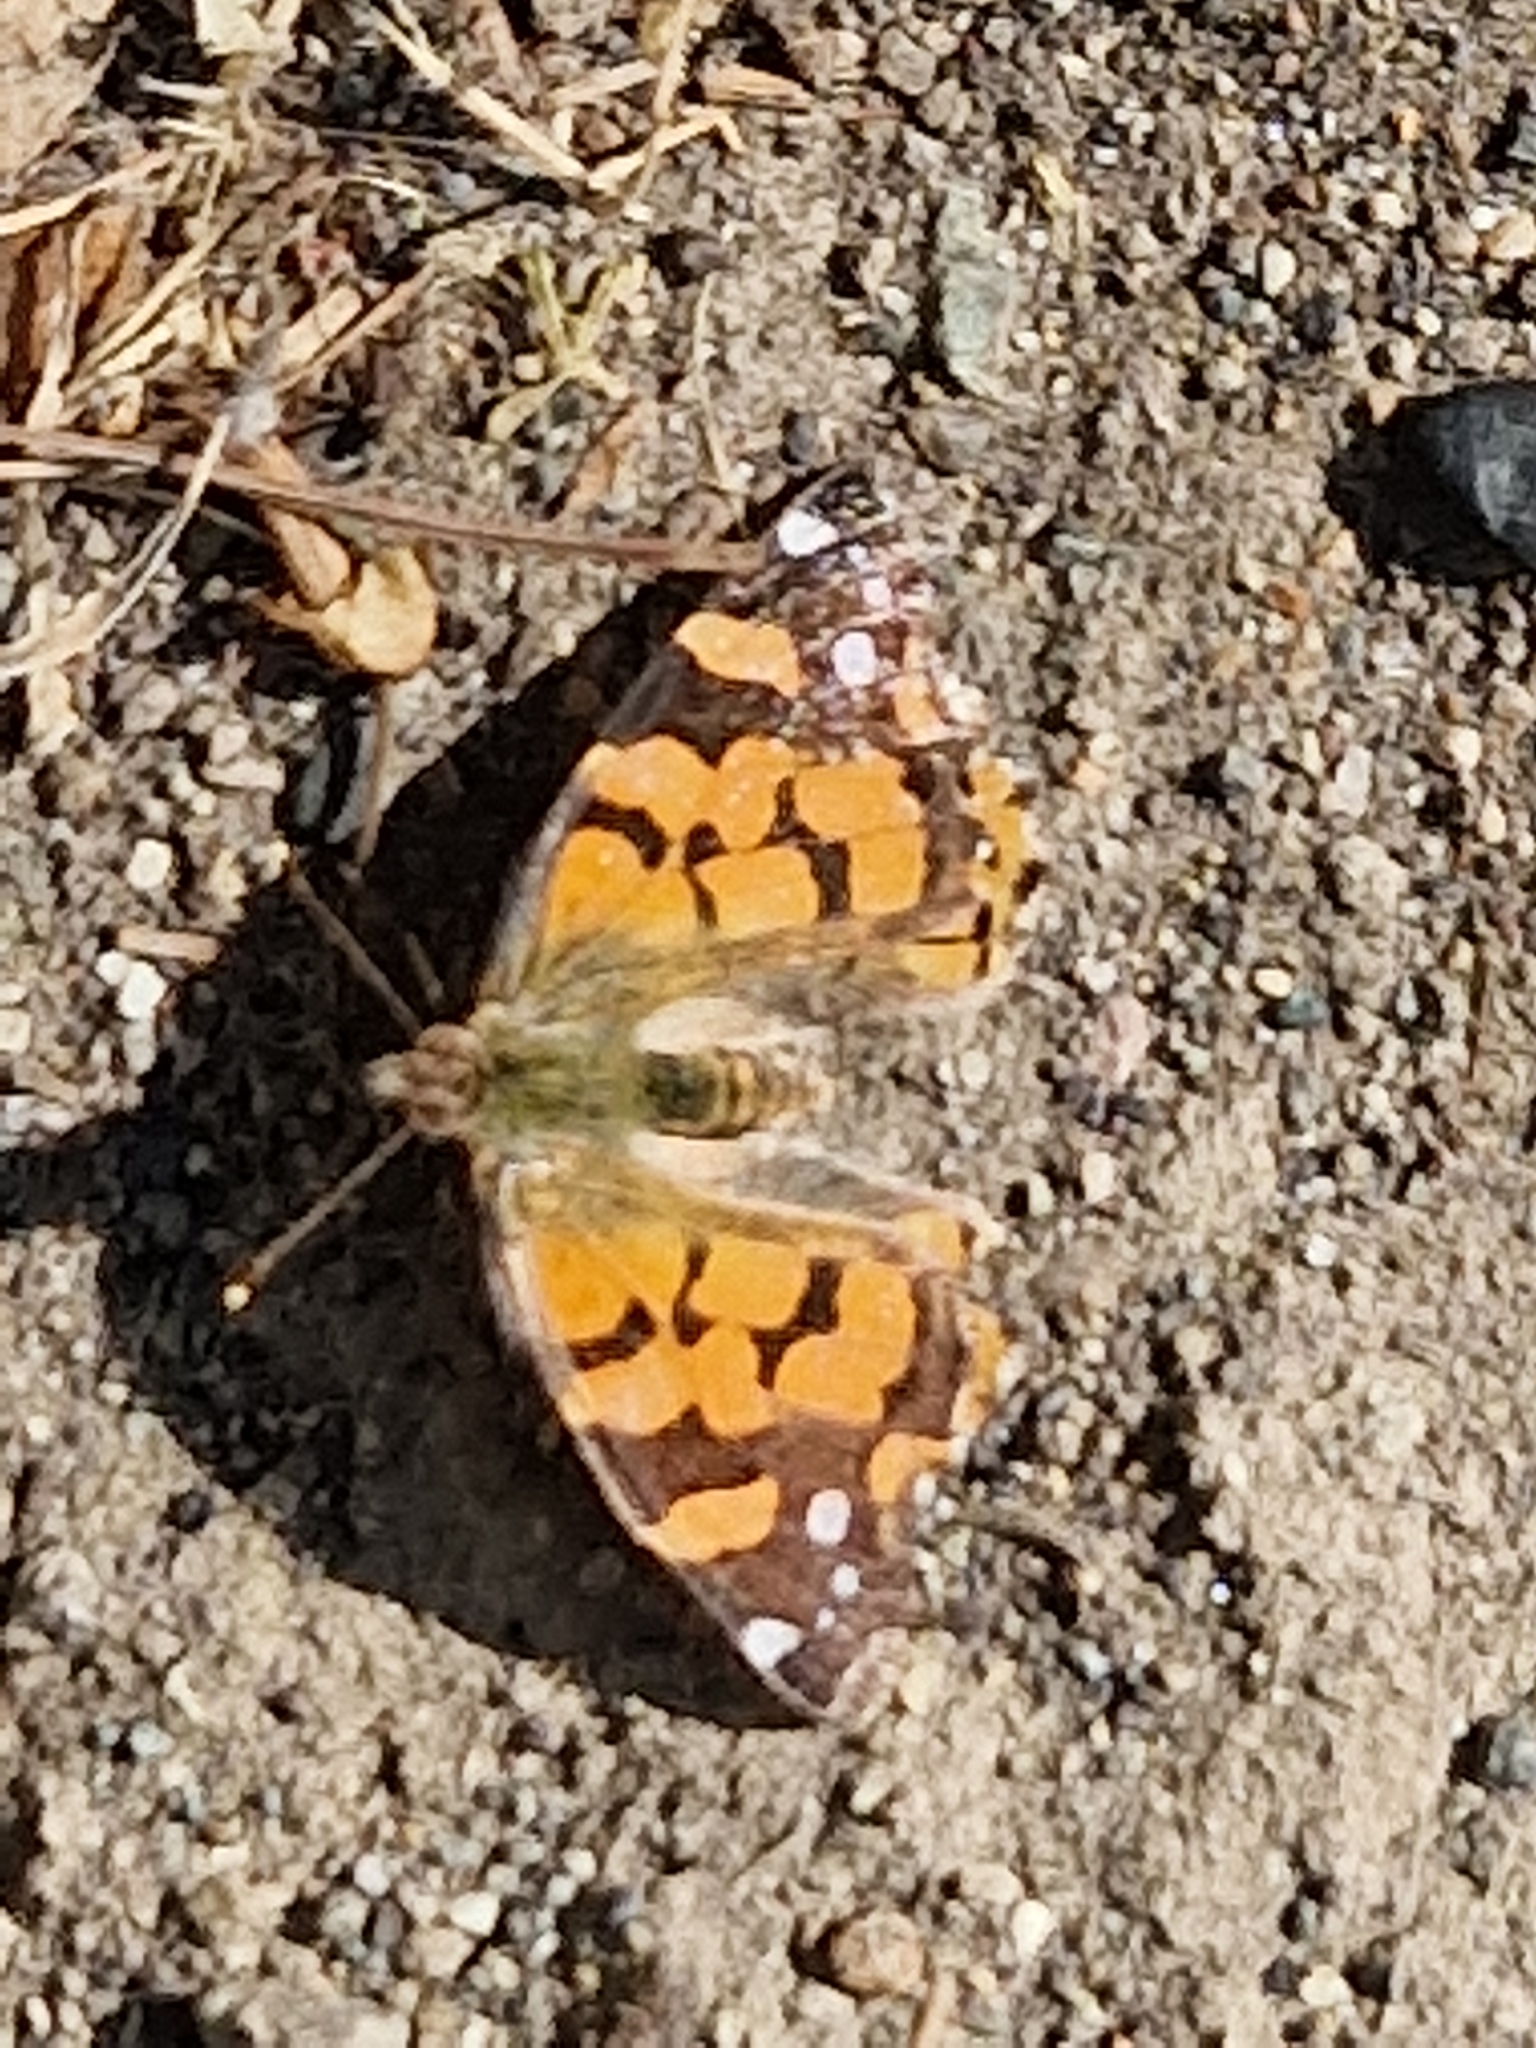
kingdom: Animalia
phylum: Arthropoda
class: Insecta
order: Lepidoptera
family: Nymphalidae
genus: Vanessa
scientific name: Vanessa carye
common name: Subtropical lady
